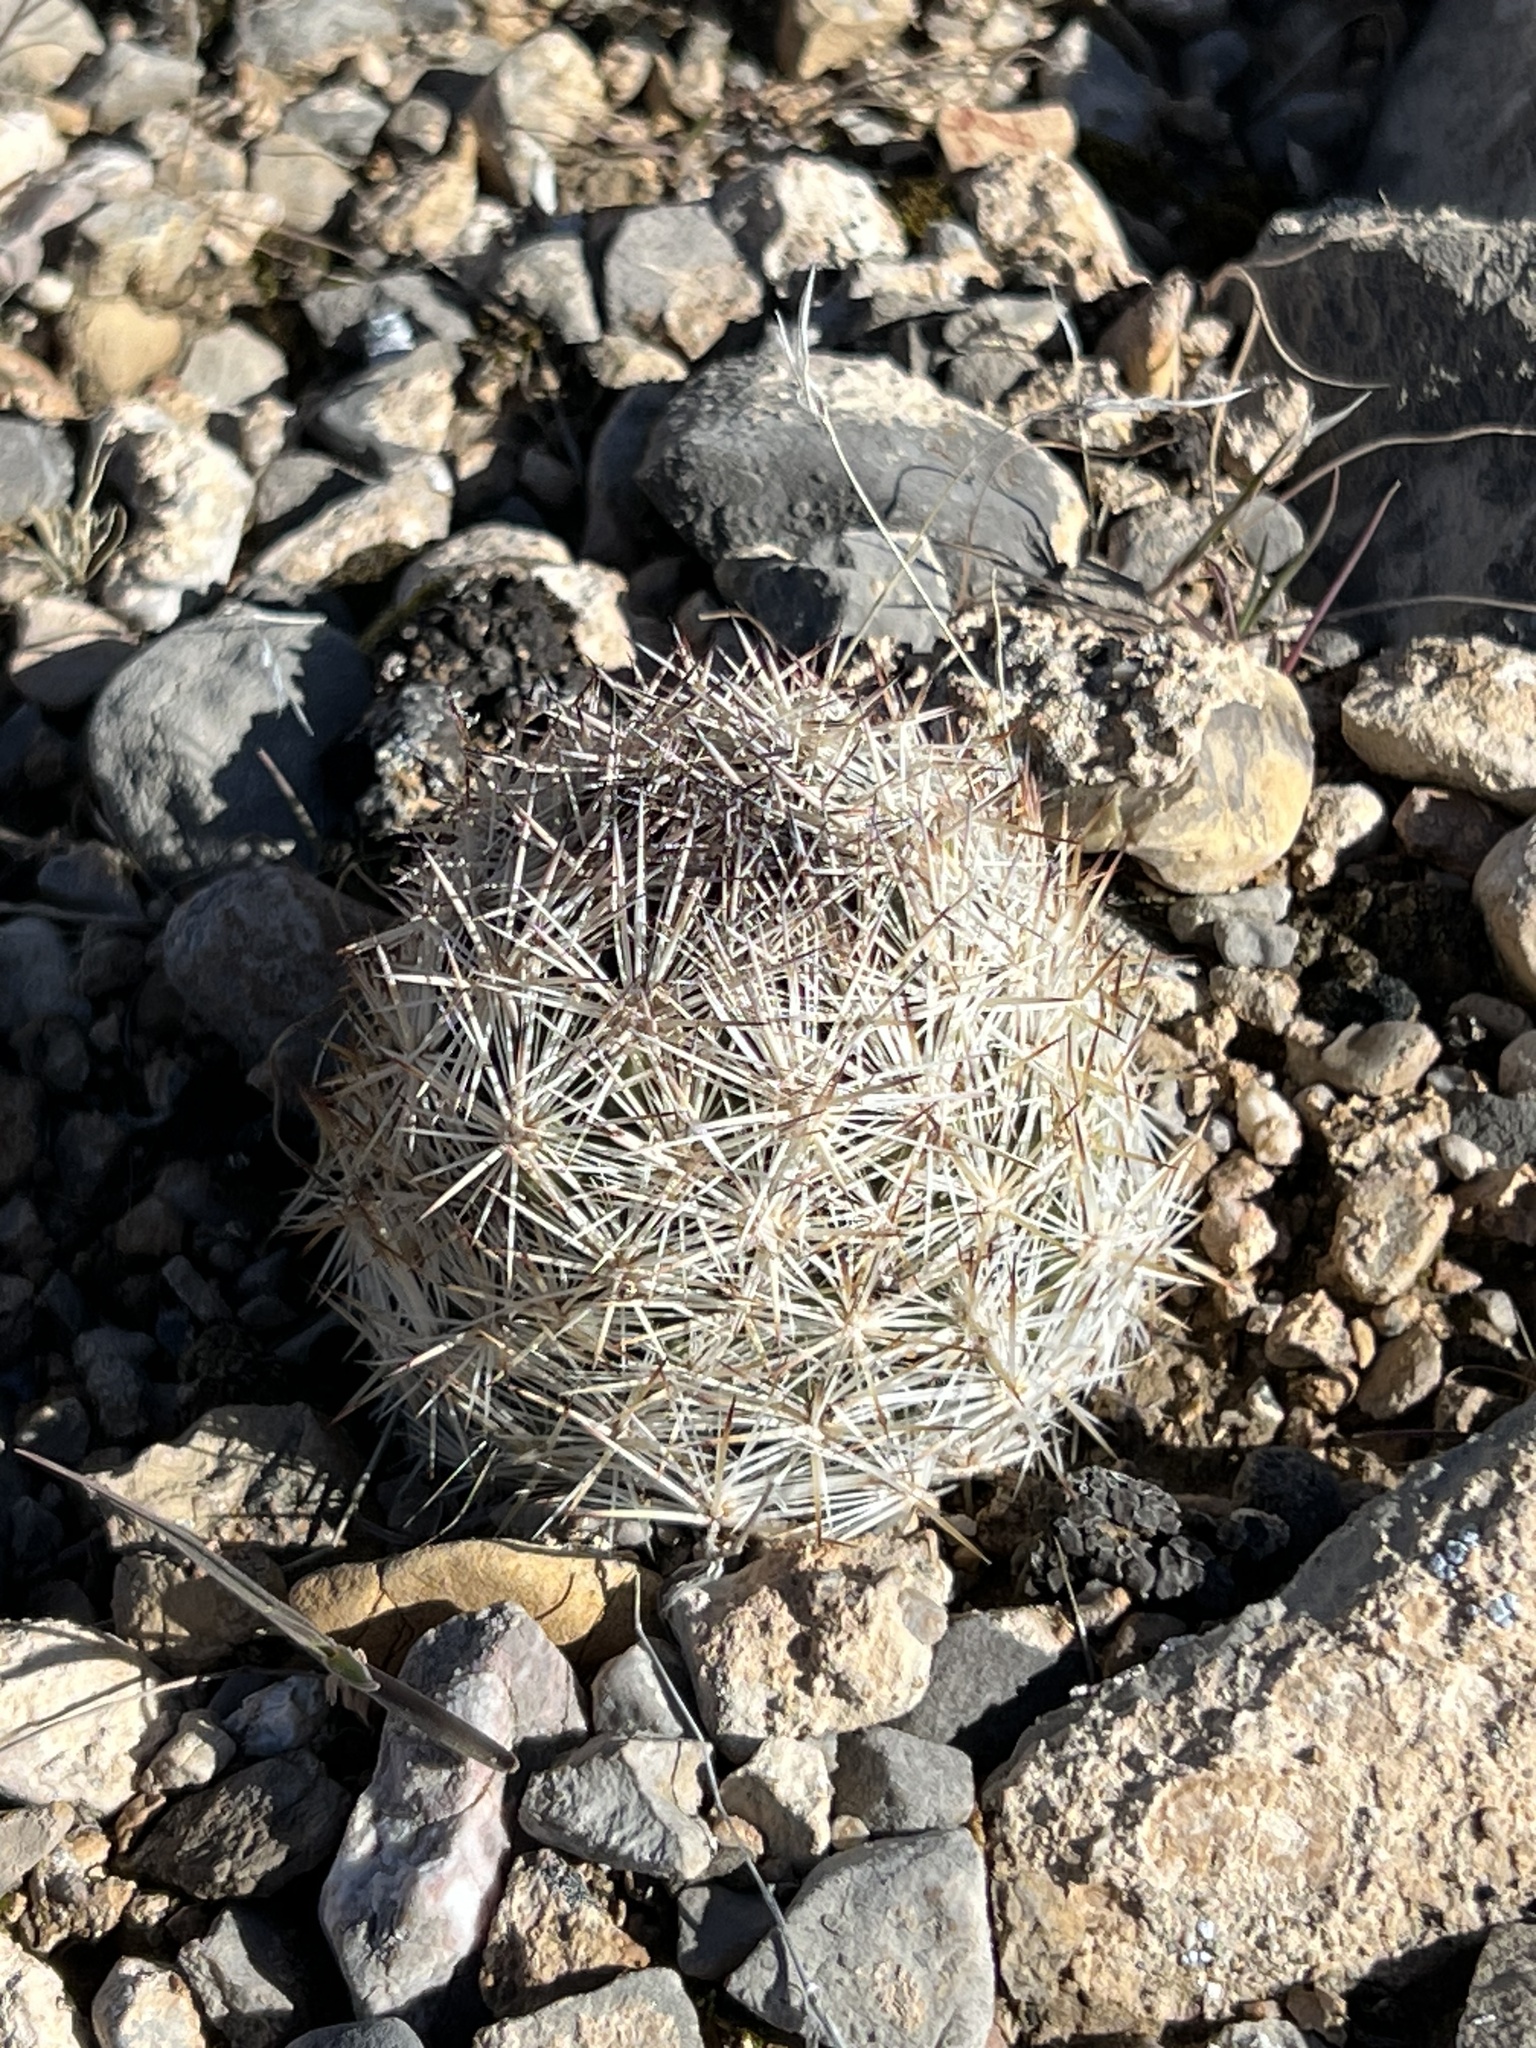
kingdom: Plantae
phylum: Tracheophyta
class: Magnoliopsida
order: Caryophyllales
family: Cactaceae
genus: Pelecyphora
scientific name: Pelecyphora dasyacantha
